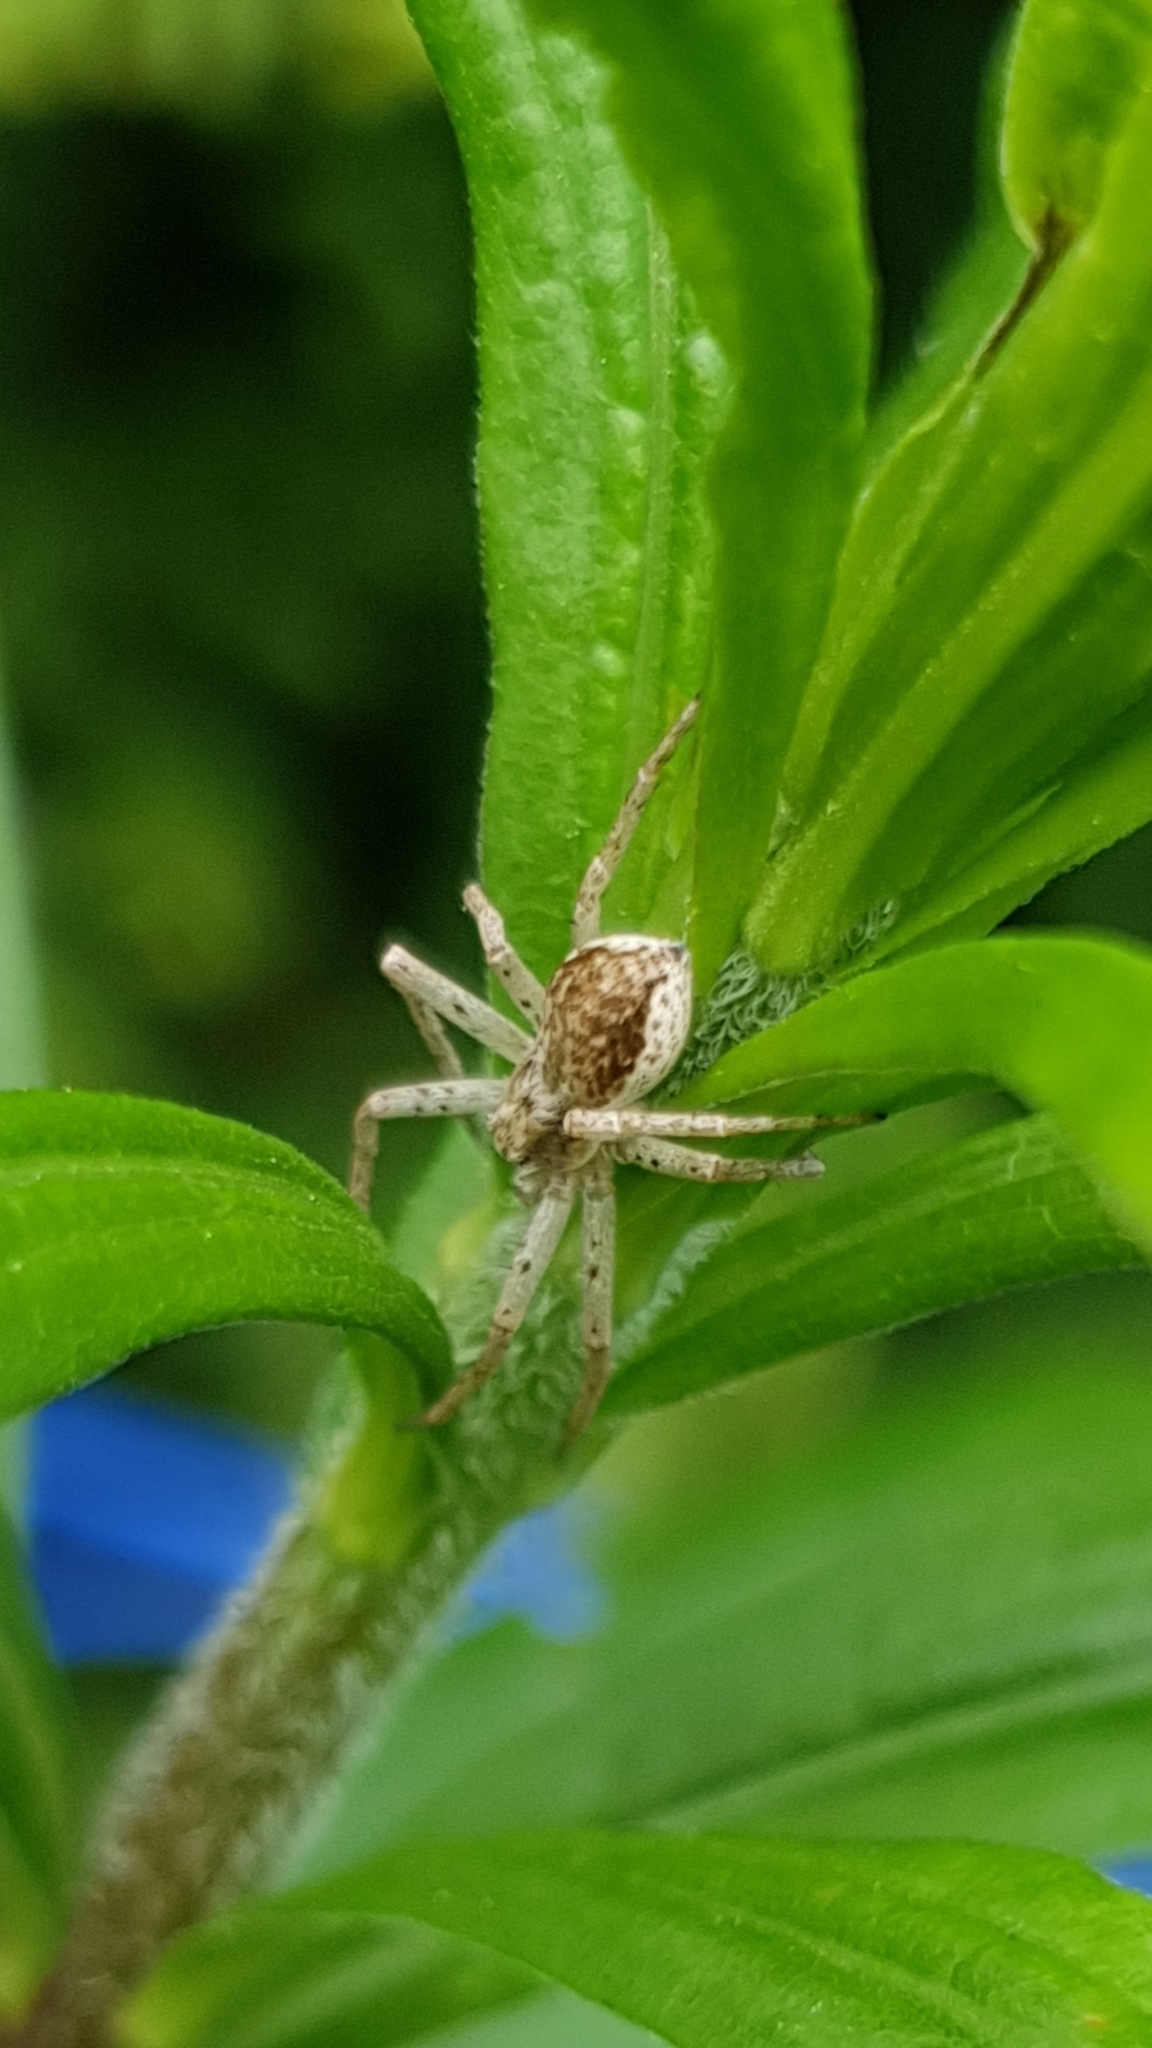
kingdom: Animalia
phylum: Arthropoda
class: Arachnida
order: Araneae
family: Philodromidae
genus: Philodromus
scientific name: Philodromus dispar
